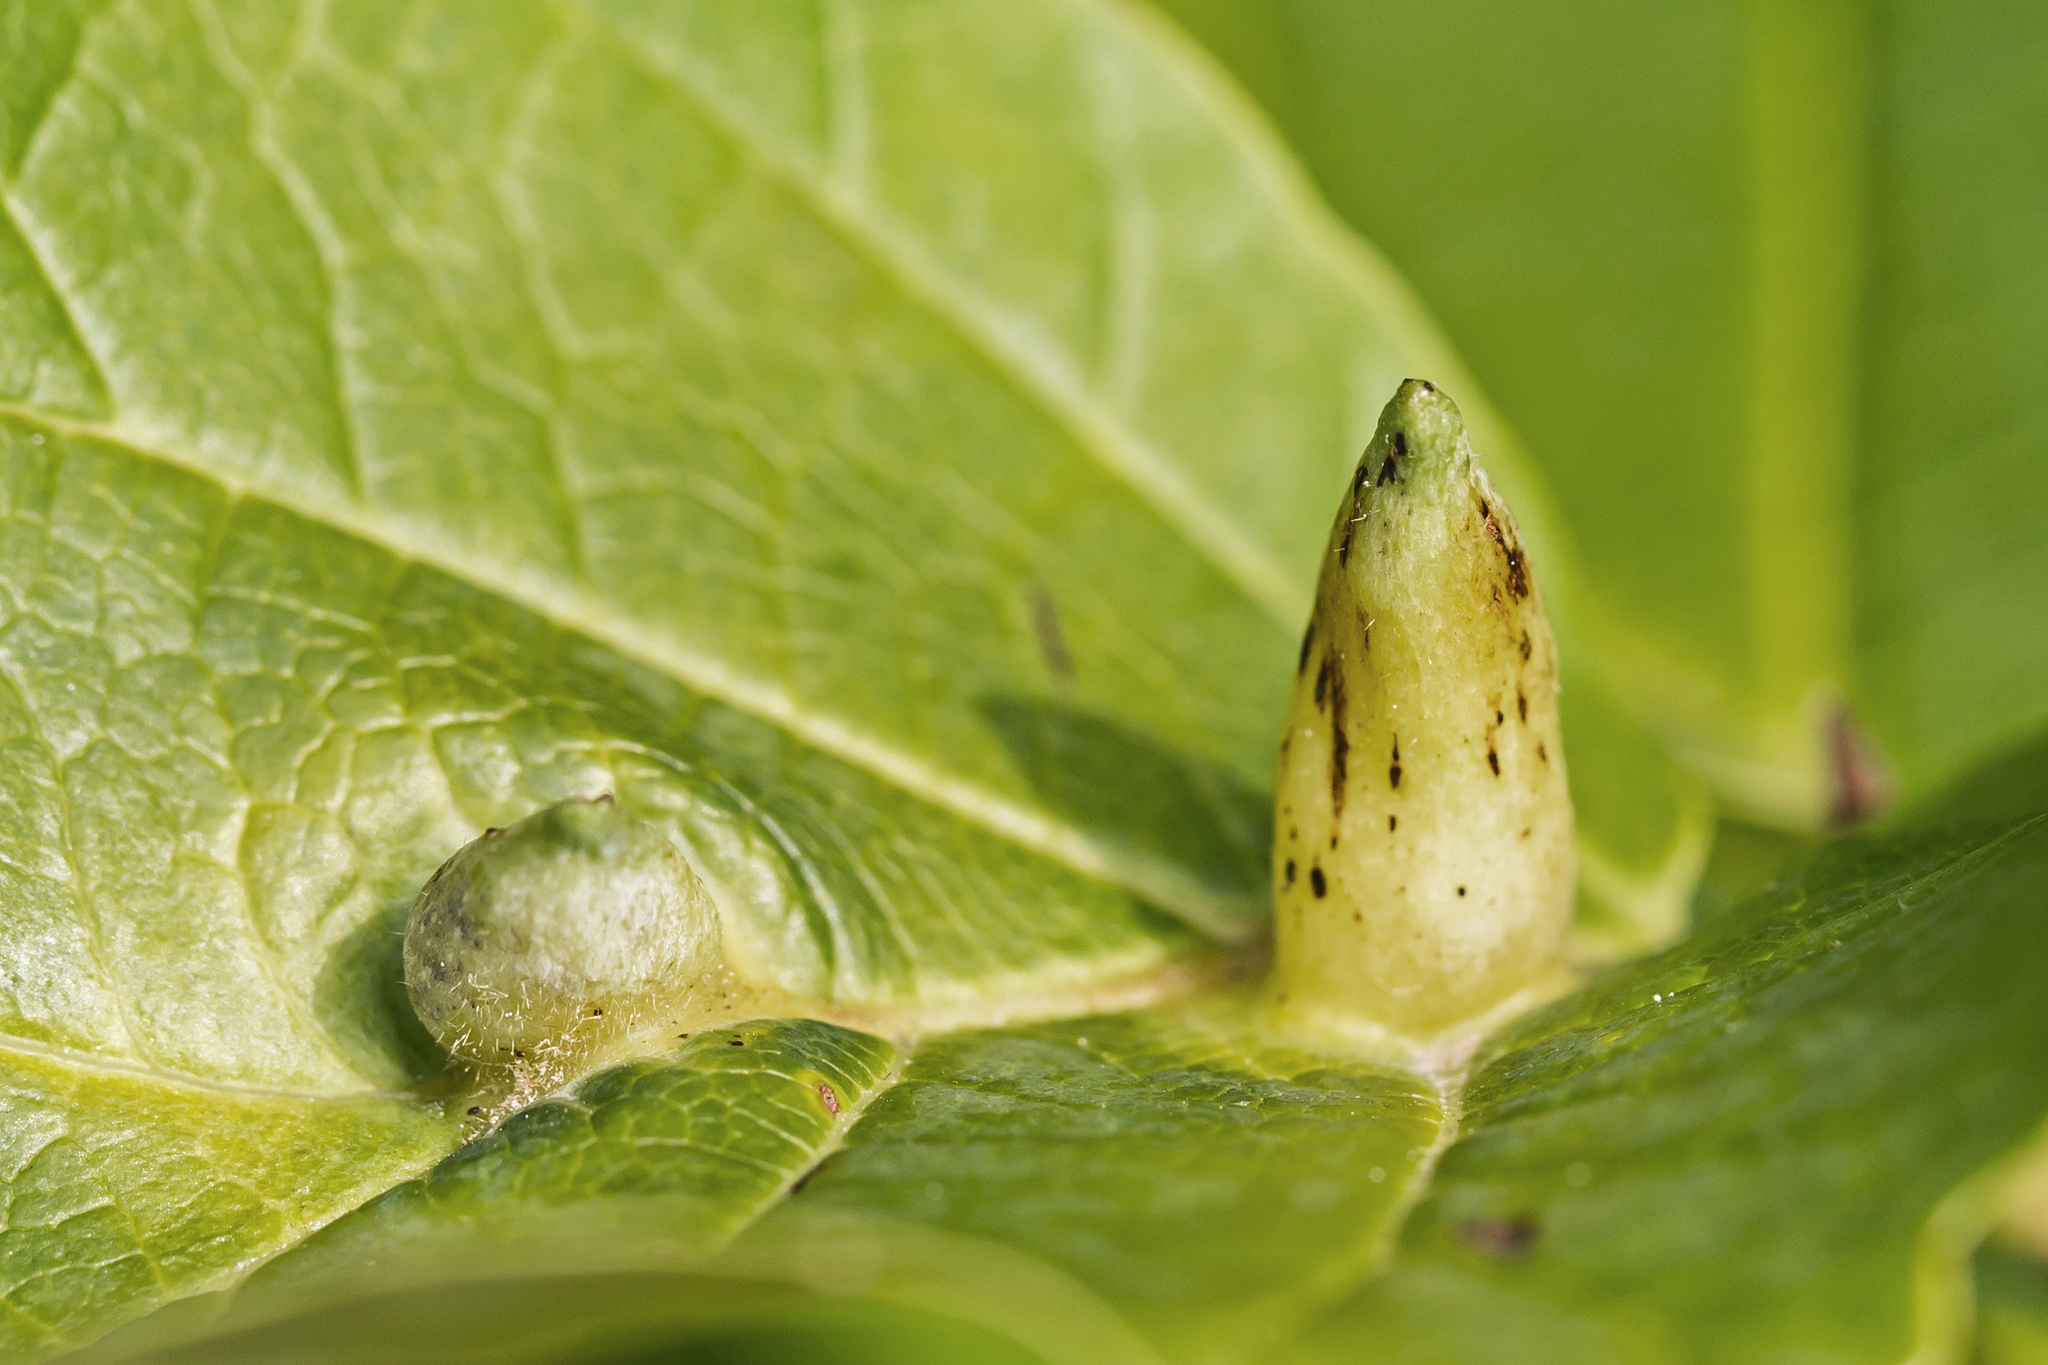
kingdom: Animalia
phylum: Arthropoda
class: Insecta
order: Hemiptera
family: Aphididae
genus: Hormaphis
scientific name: Hormaphis hamamelidis
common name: Witch-hazel cone gall aphid
